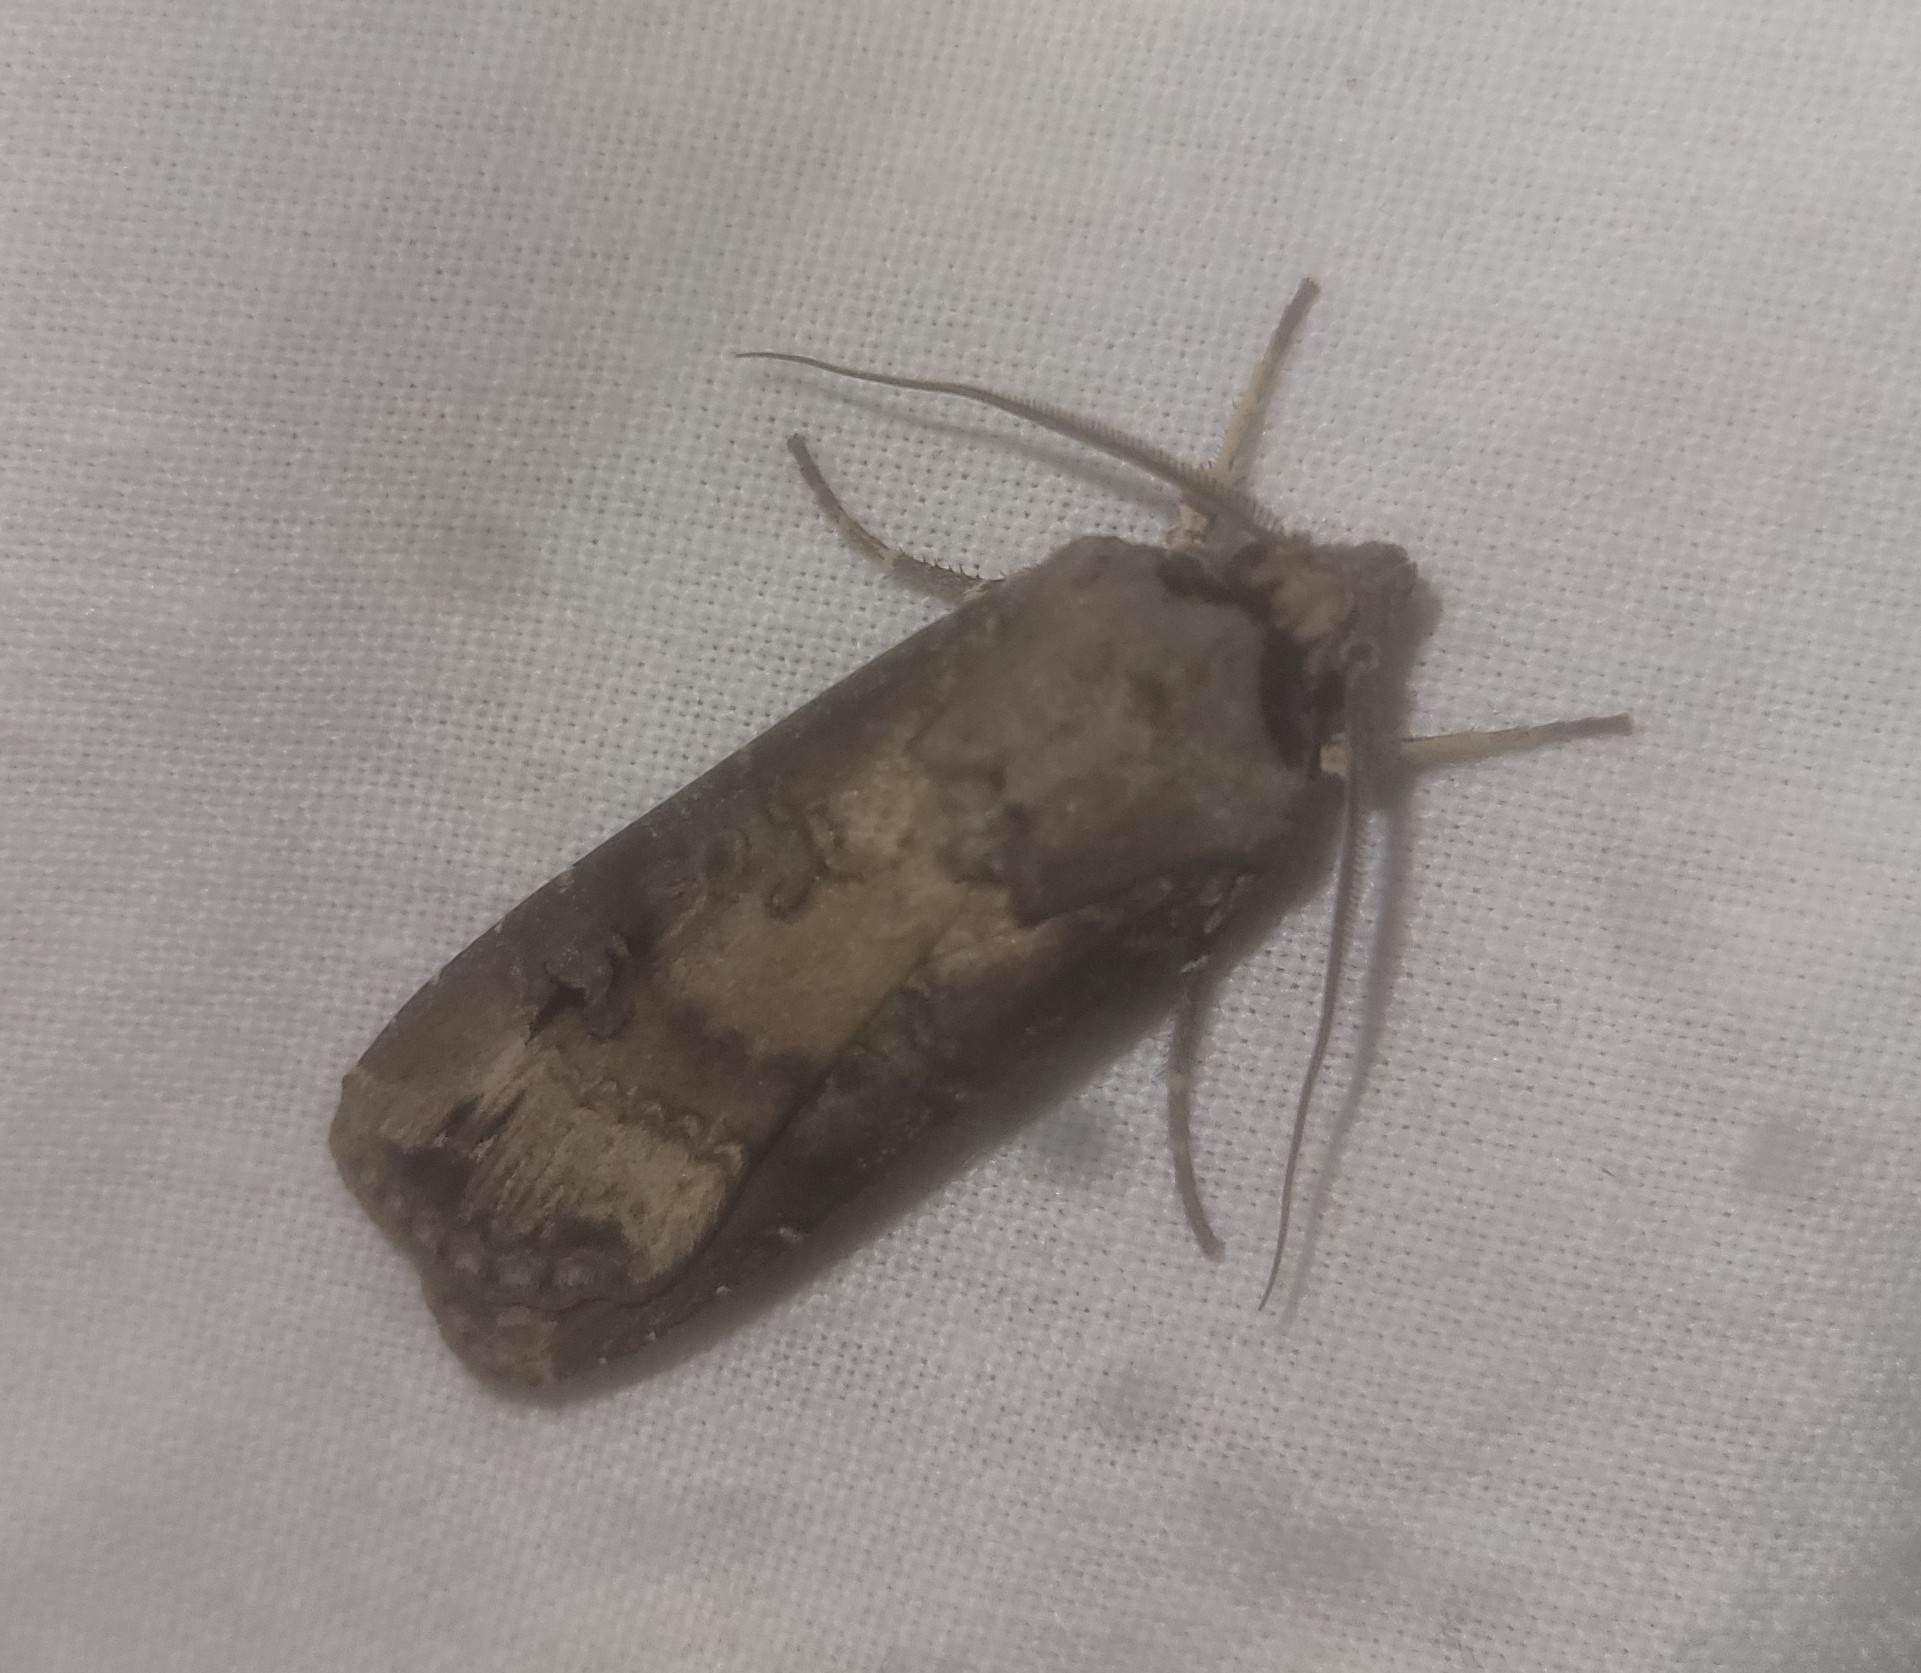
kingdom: Animalia
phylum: Arthropoda
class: Insecta
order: Lepidoptera
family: Noctuidae
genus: Agrotis
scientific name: Agrotis ipsilon
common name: Dark sword-grass
